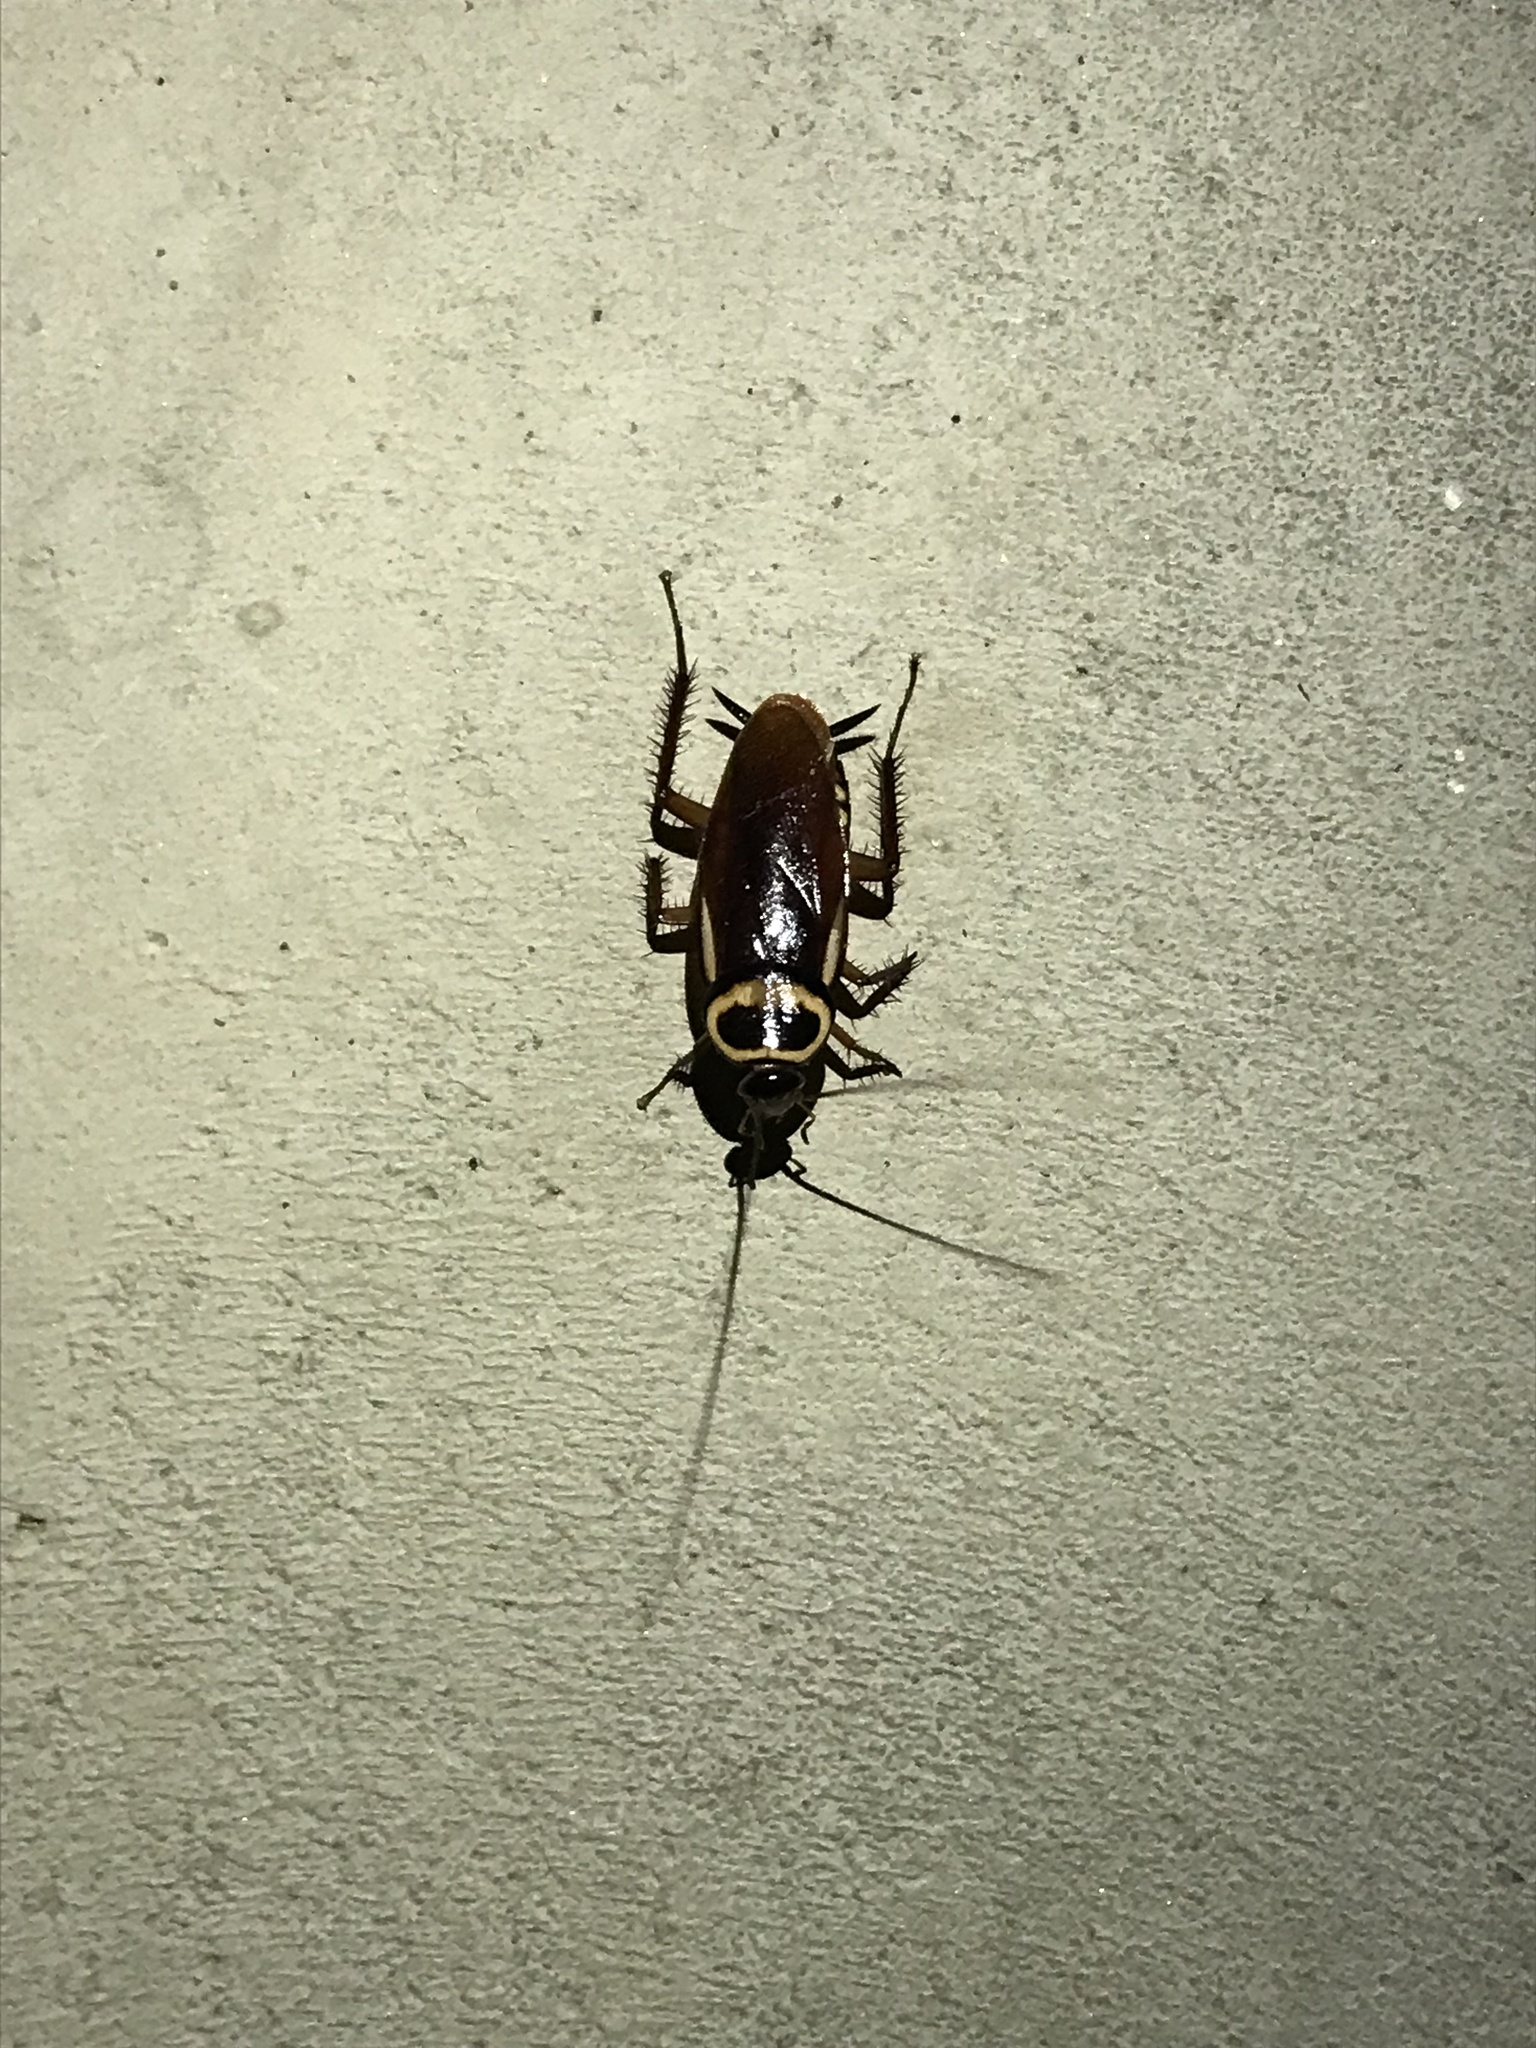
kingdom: Animalia
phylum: Arthropoda
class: Insecta
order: Blattodea
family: Blattidae
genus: Periplaneta
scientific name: Periplaneta australasiae
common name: Australian cockroach
